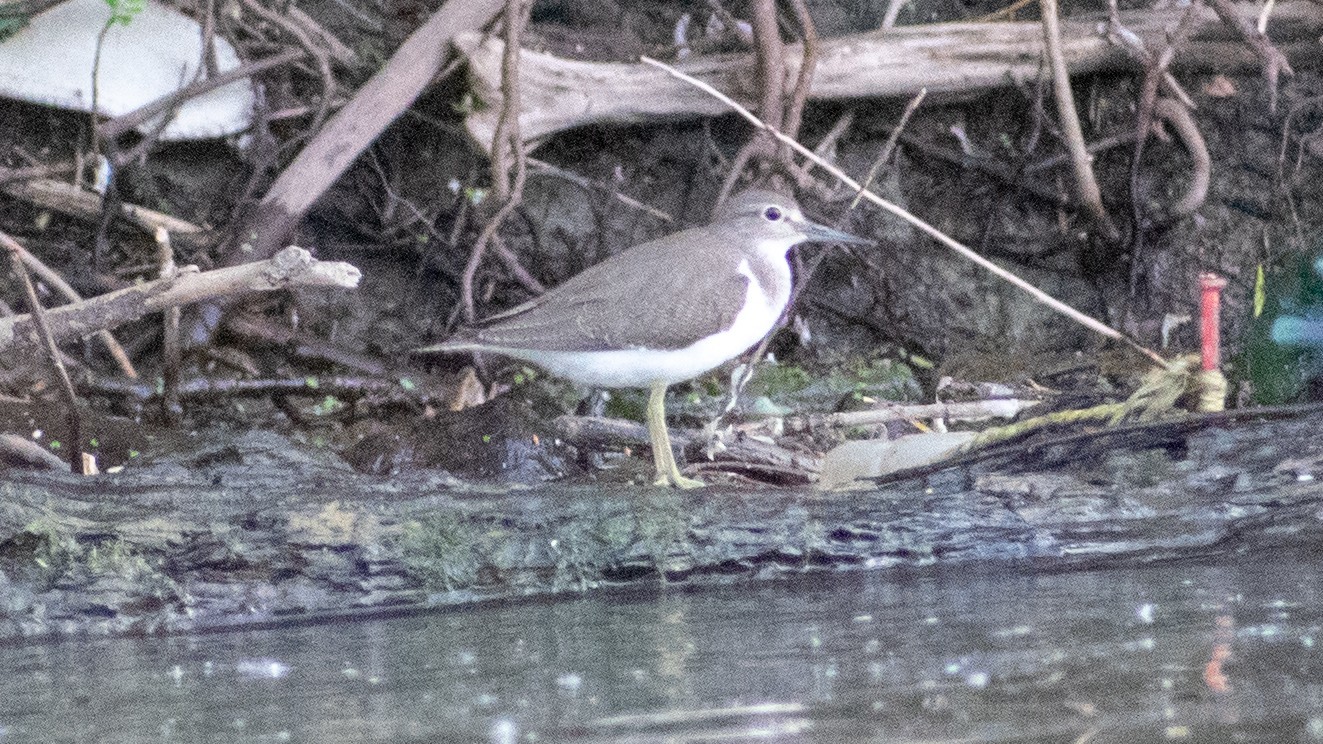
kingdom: Animalia
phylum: Chordata
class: Aves
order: Charadriiformes
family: Scolopacidae
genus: Actitis
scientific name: Actitis hypoleucos
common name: Common sandpiper
